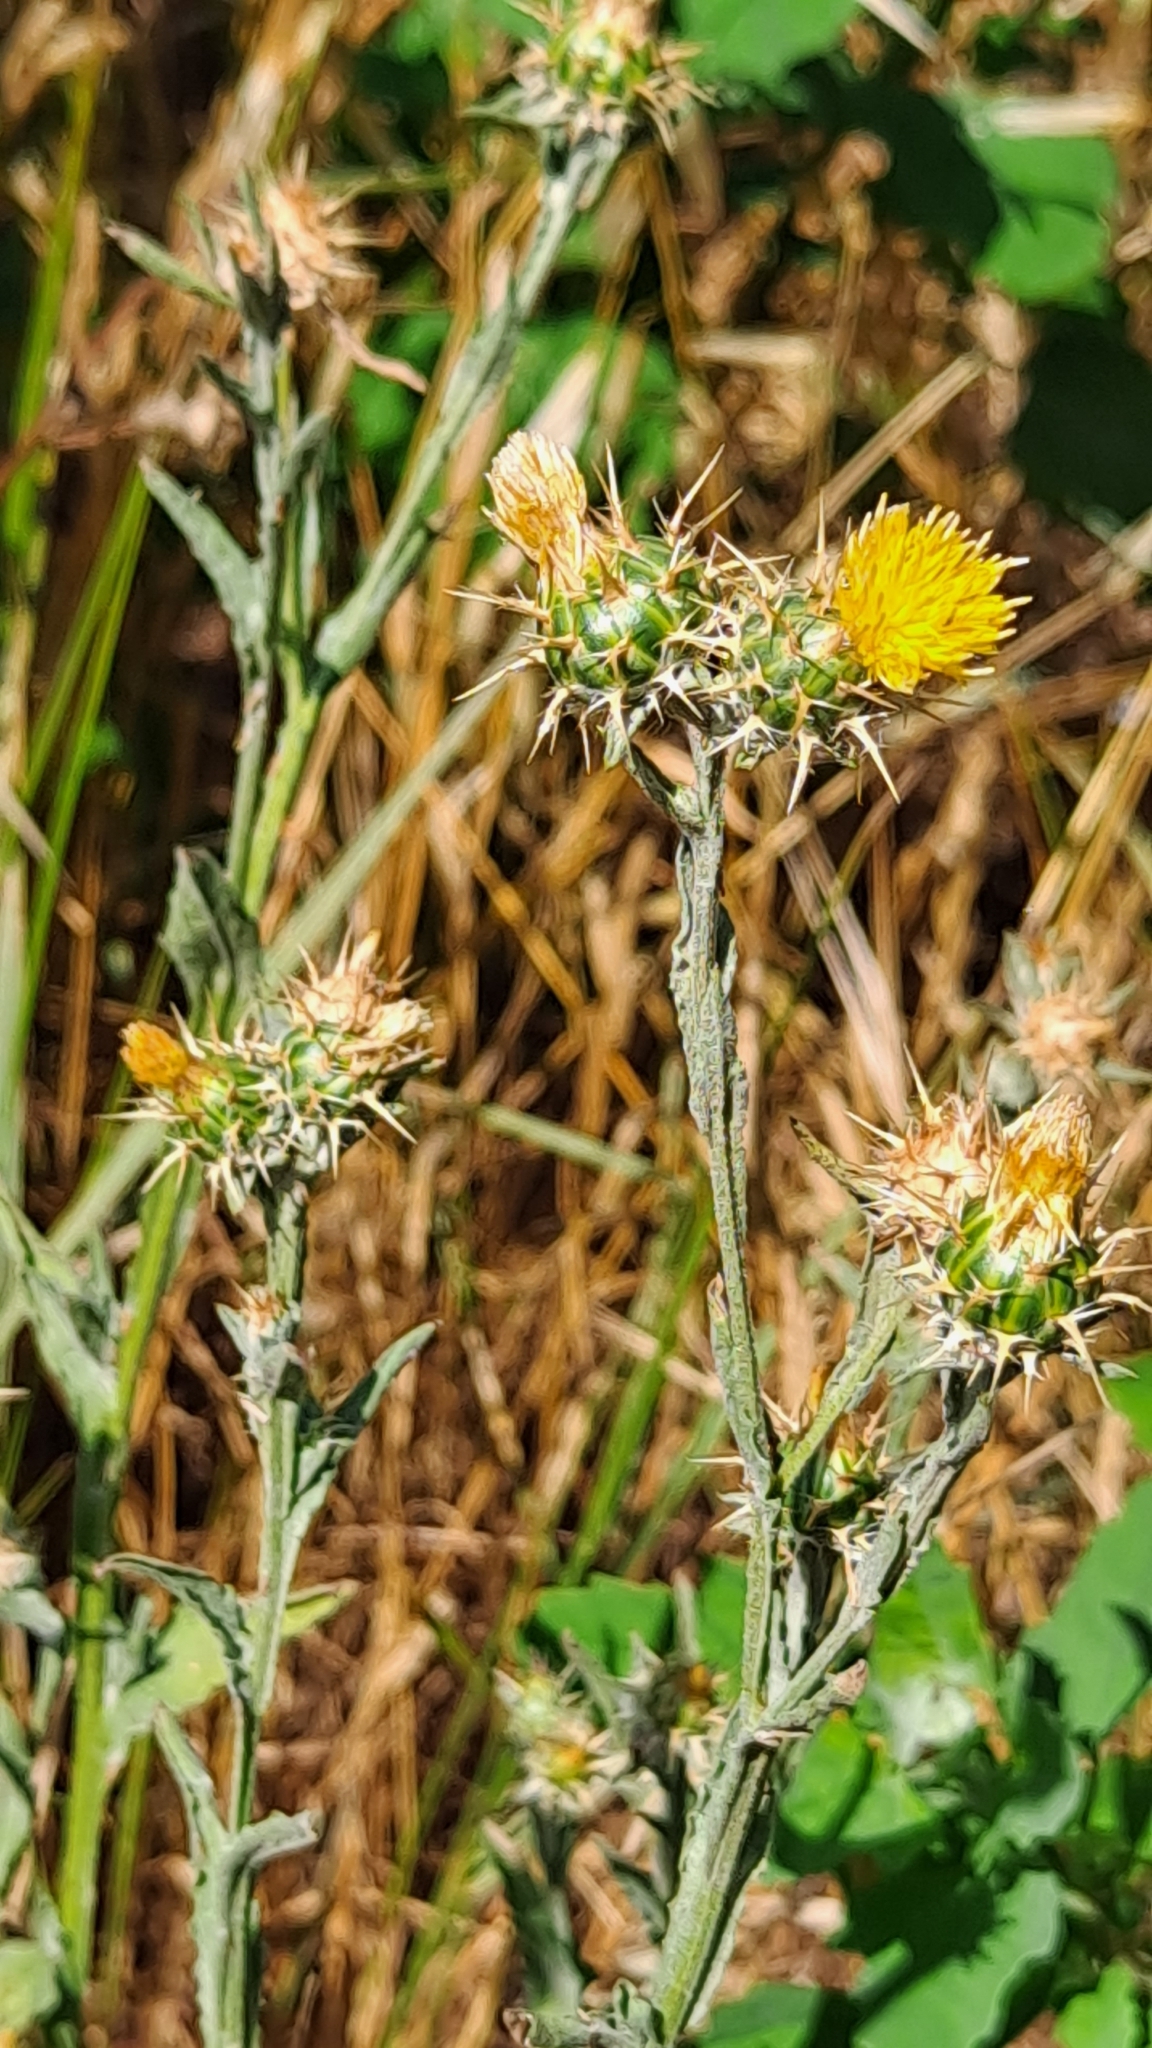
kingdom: Plantae
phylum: Tracheophyta
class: Magnoliopsida
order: Asterales
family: Asteraceae
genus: Centaurea
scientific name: Centaurea melitensis
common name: Maltese star-thistle
